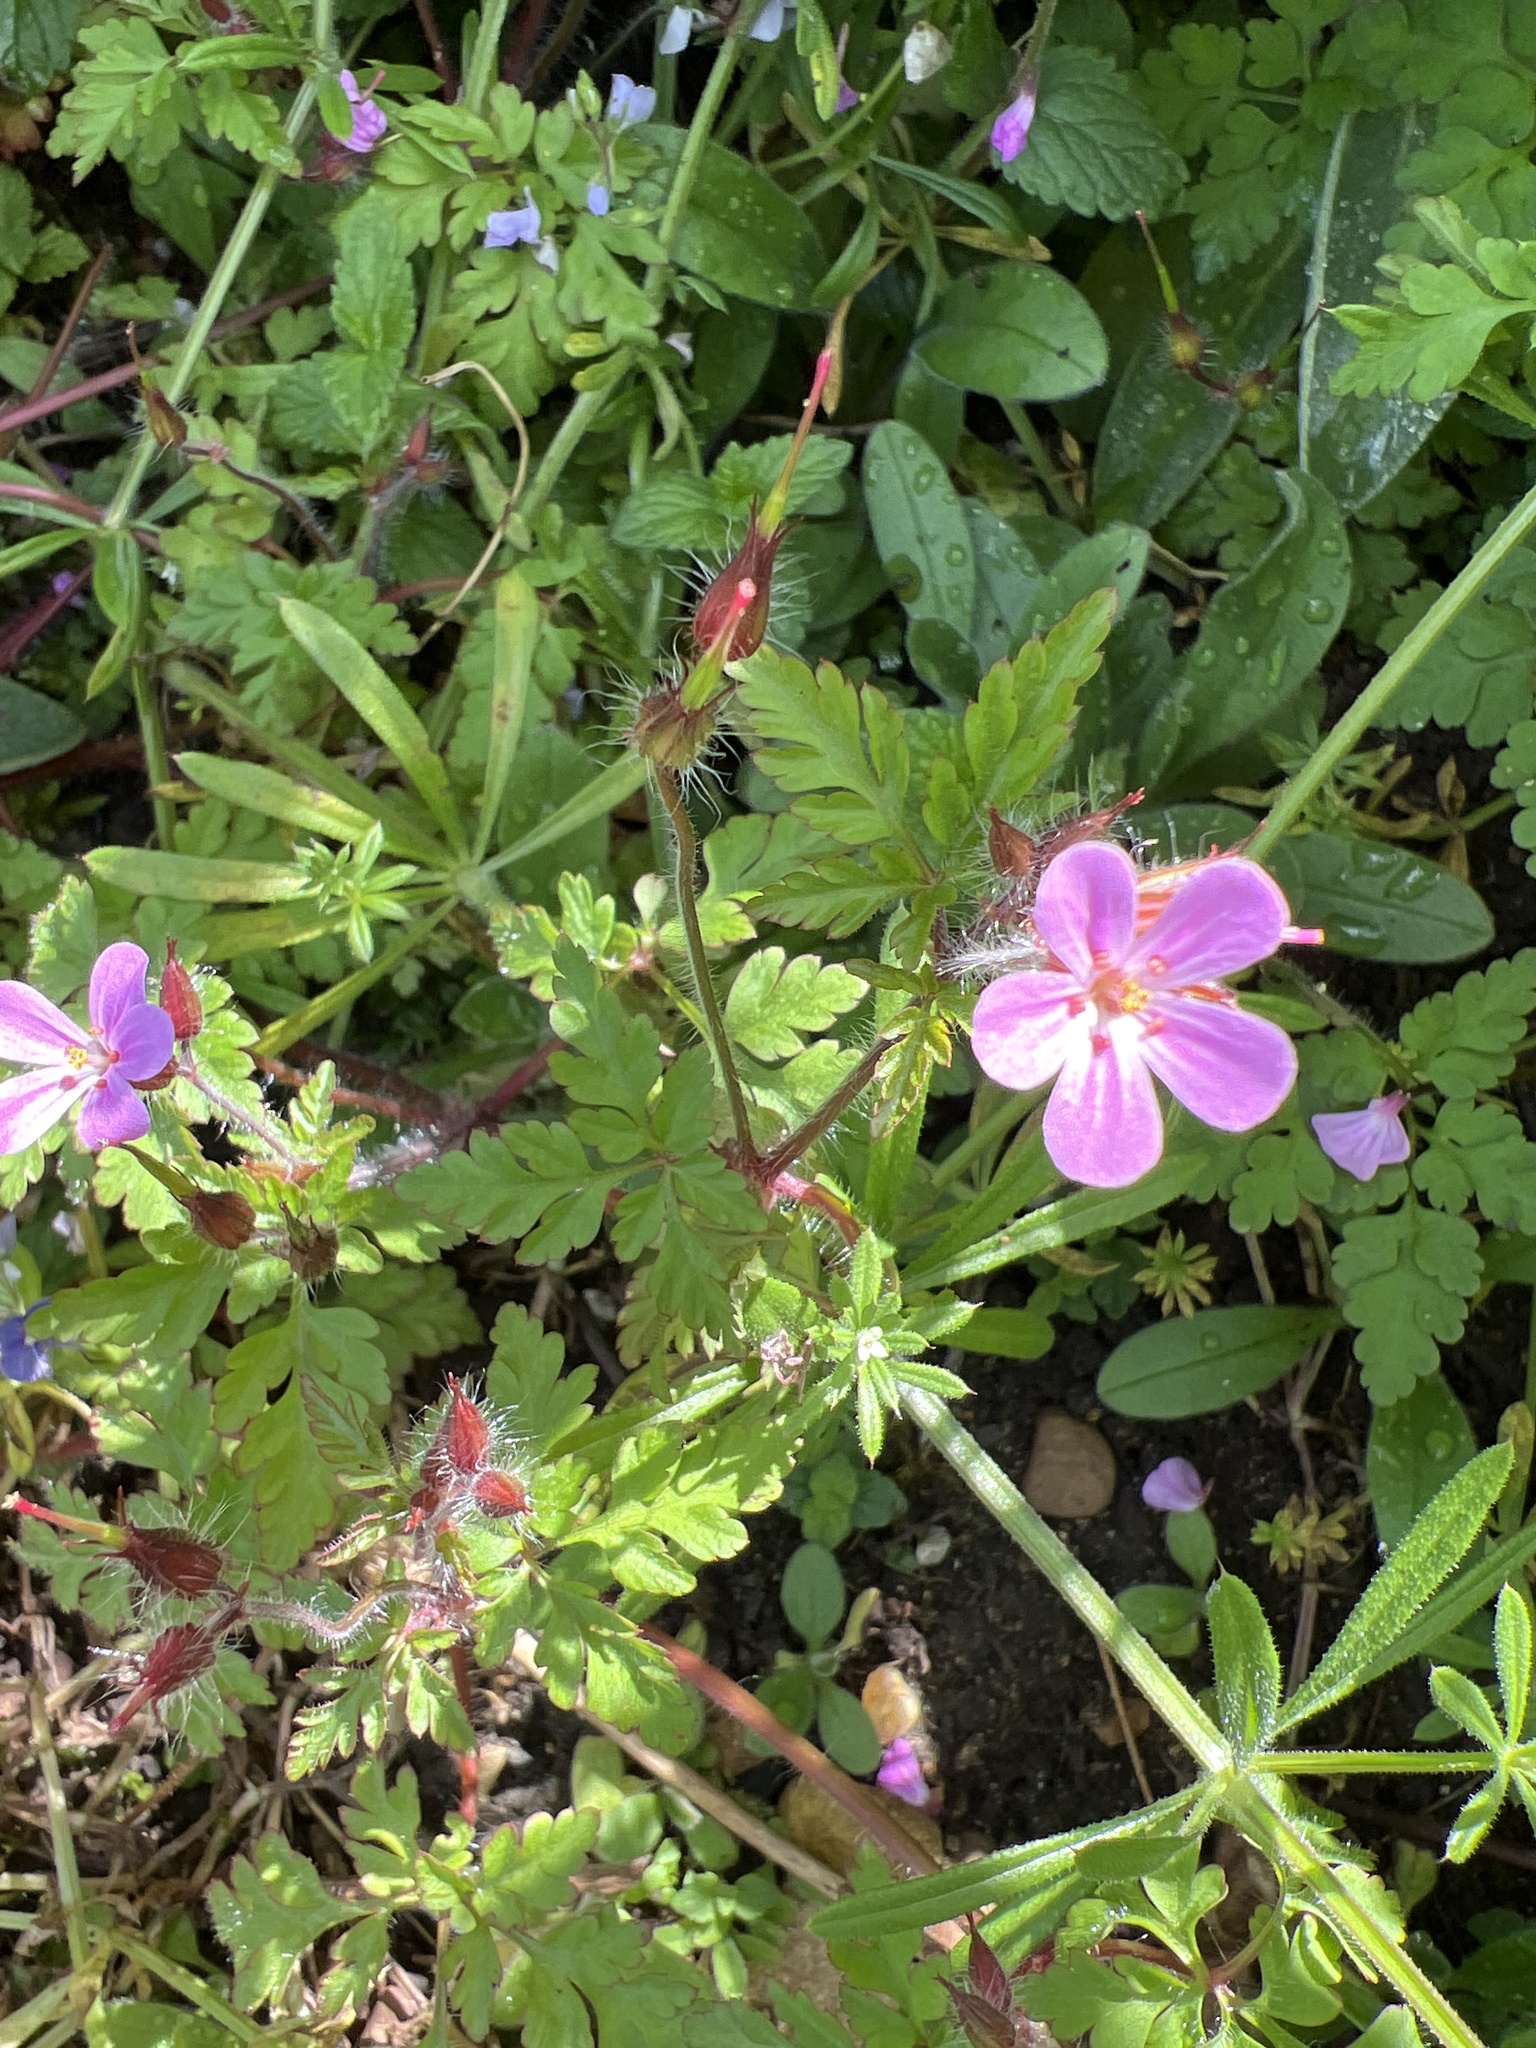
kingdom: Plantae
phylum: Tracheophyta
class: Magnoliopsida
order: Geraniales
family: Geraniaceae
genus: Geranium
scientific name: Geranium robertianum
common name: Herb-robert
